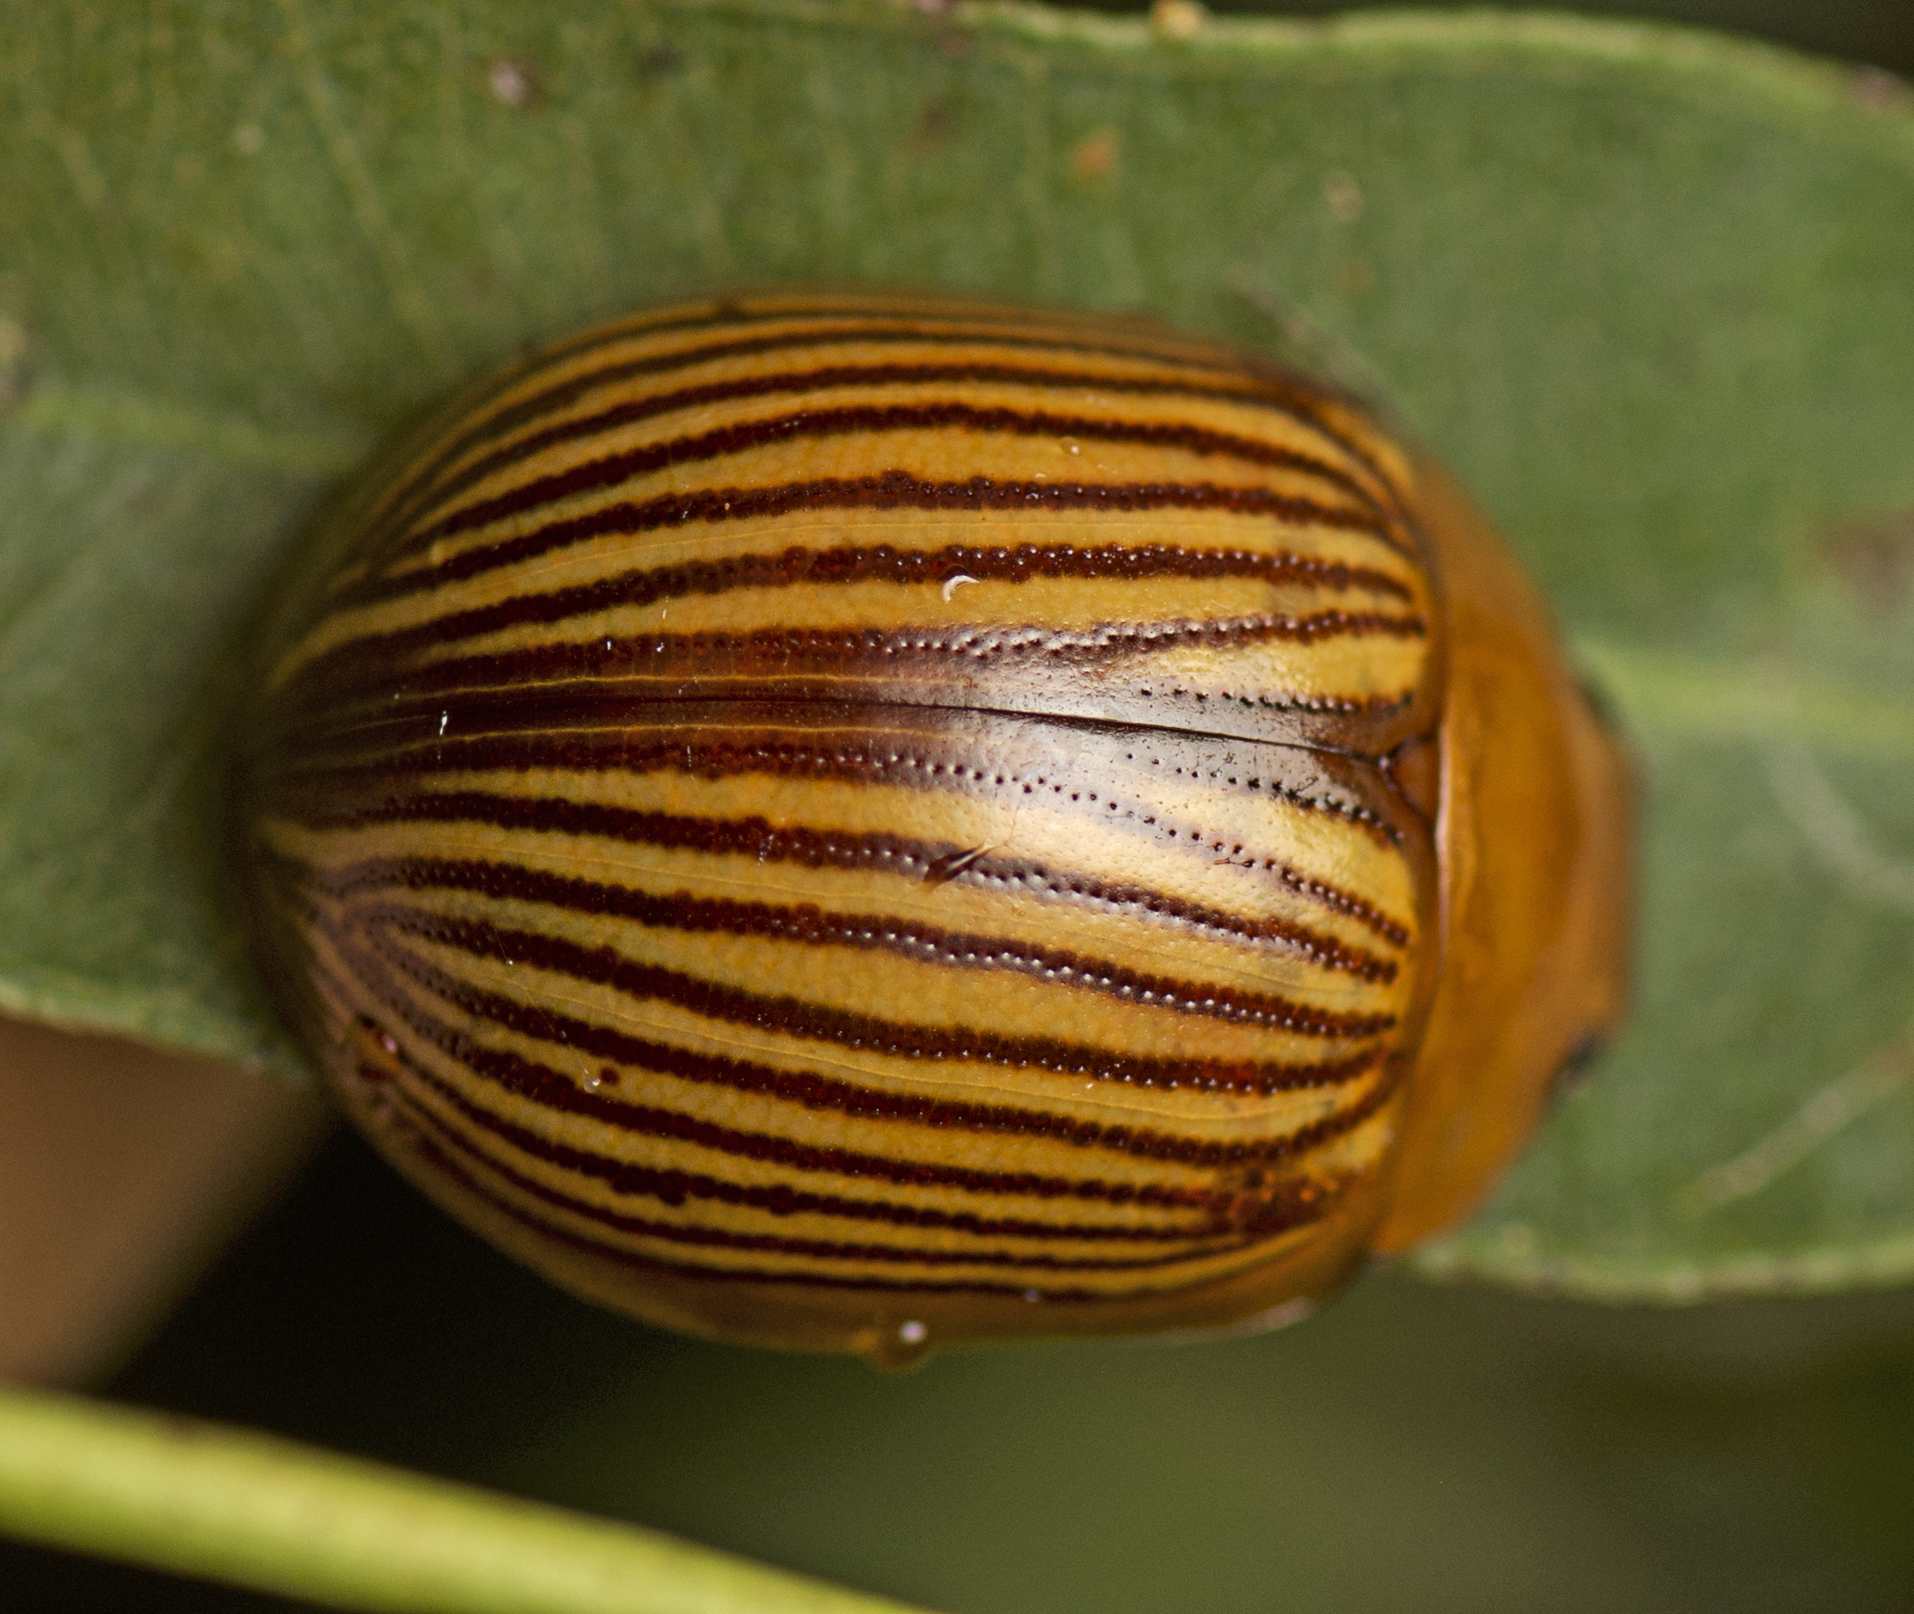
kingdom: Animalia
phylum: Arthropoda
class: Insecta
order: Coleoptera
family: Chrysomelidae
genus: Paropsisterna
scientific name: Paropsisterna
